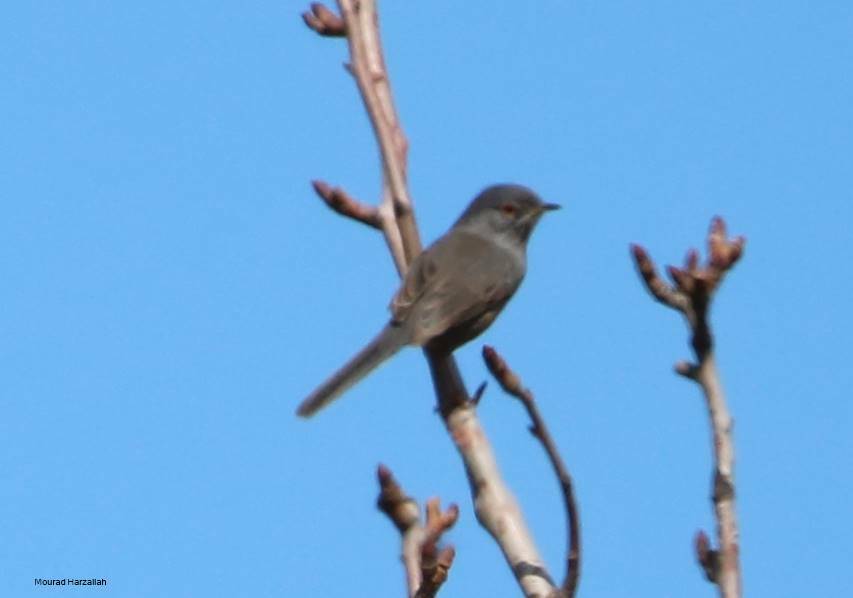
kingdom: Animalia
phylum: Chordata
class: Aves
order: Passeriformes
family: Sylviidae
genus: Sylvia
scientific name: Sylvia sarda
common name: Marmora's warbler
